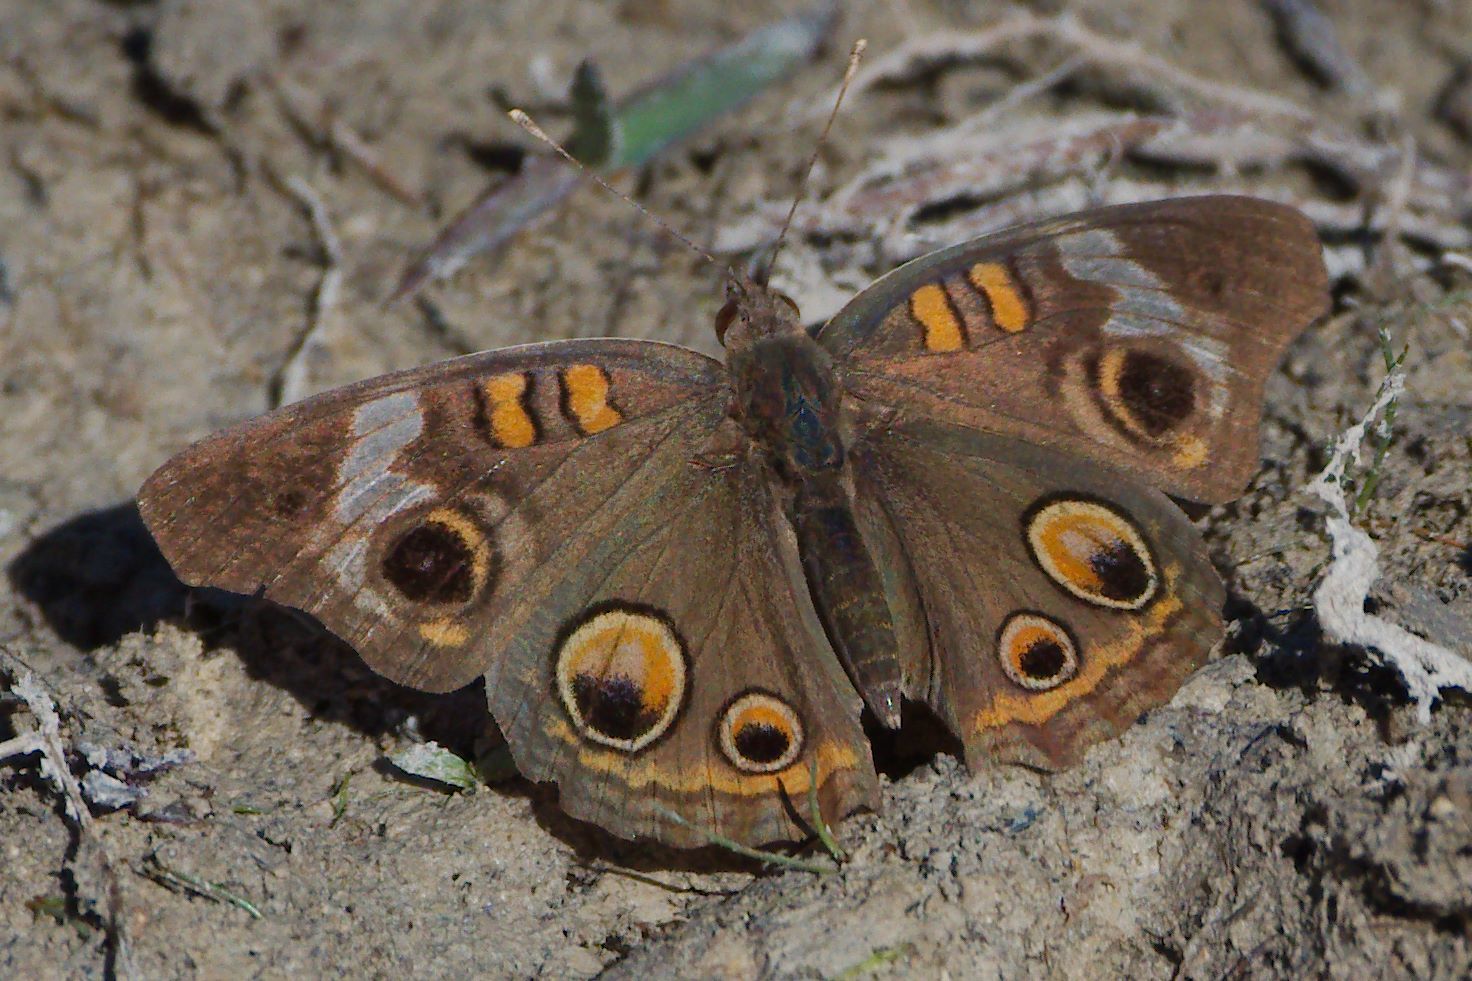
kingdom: Animalia
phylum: Arthropoda
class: Insecta
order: Lepidoptera
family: Nymphalidae
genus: Junonia
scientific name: Junonia coenia
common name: Common buckeye
